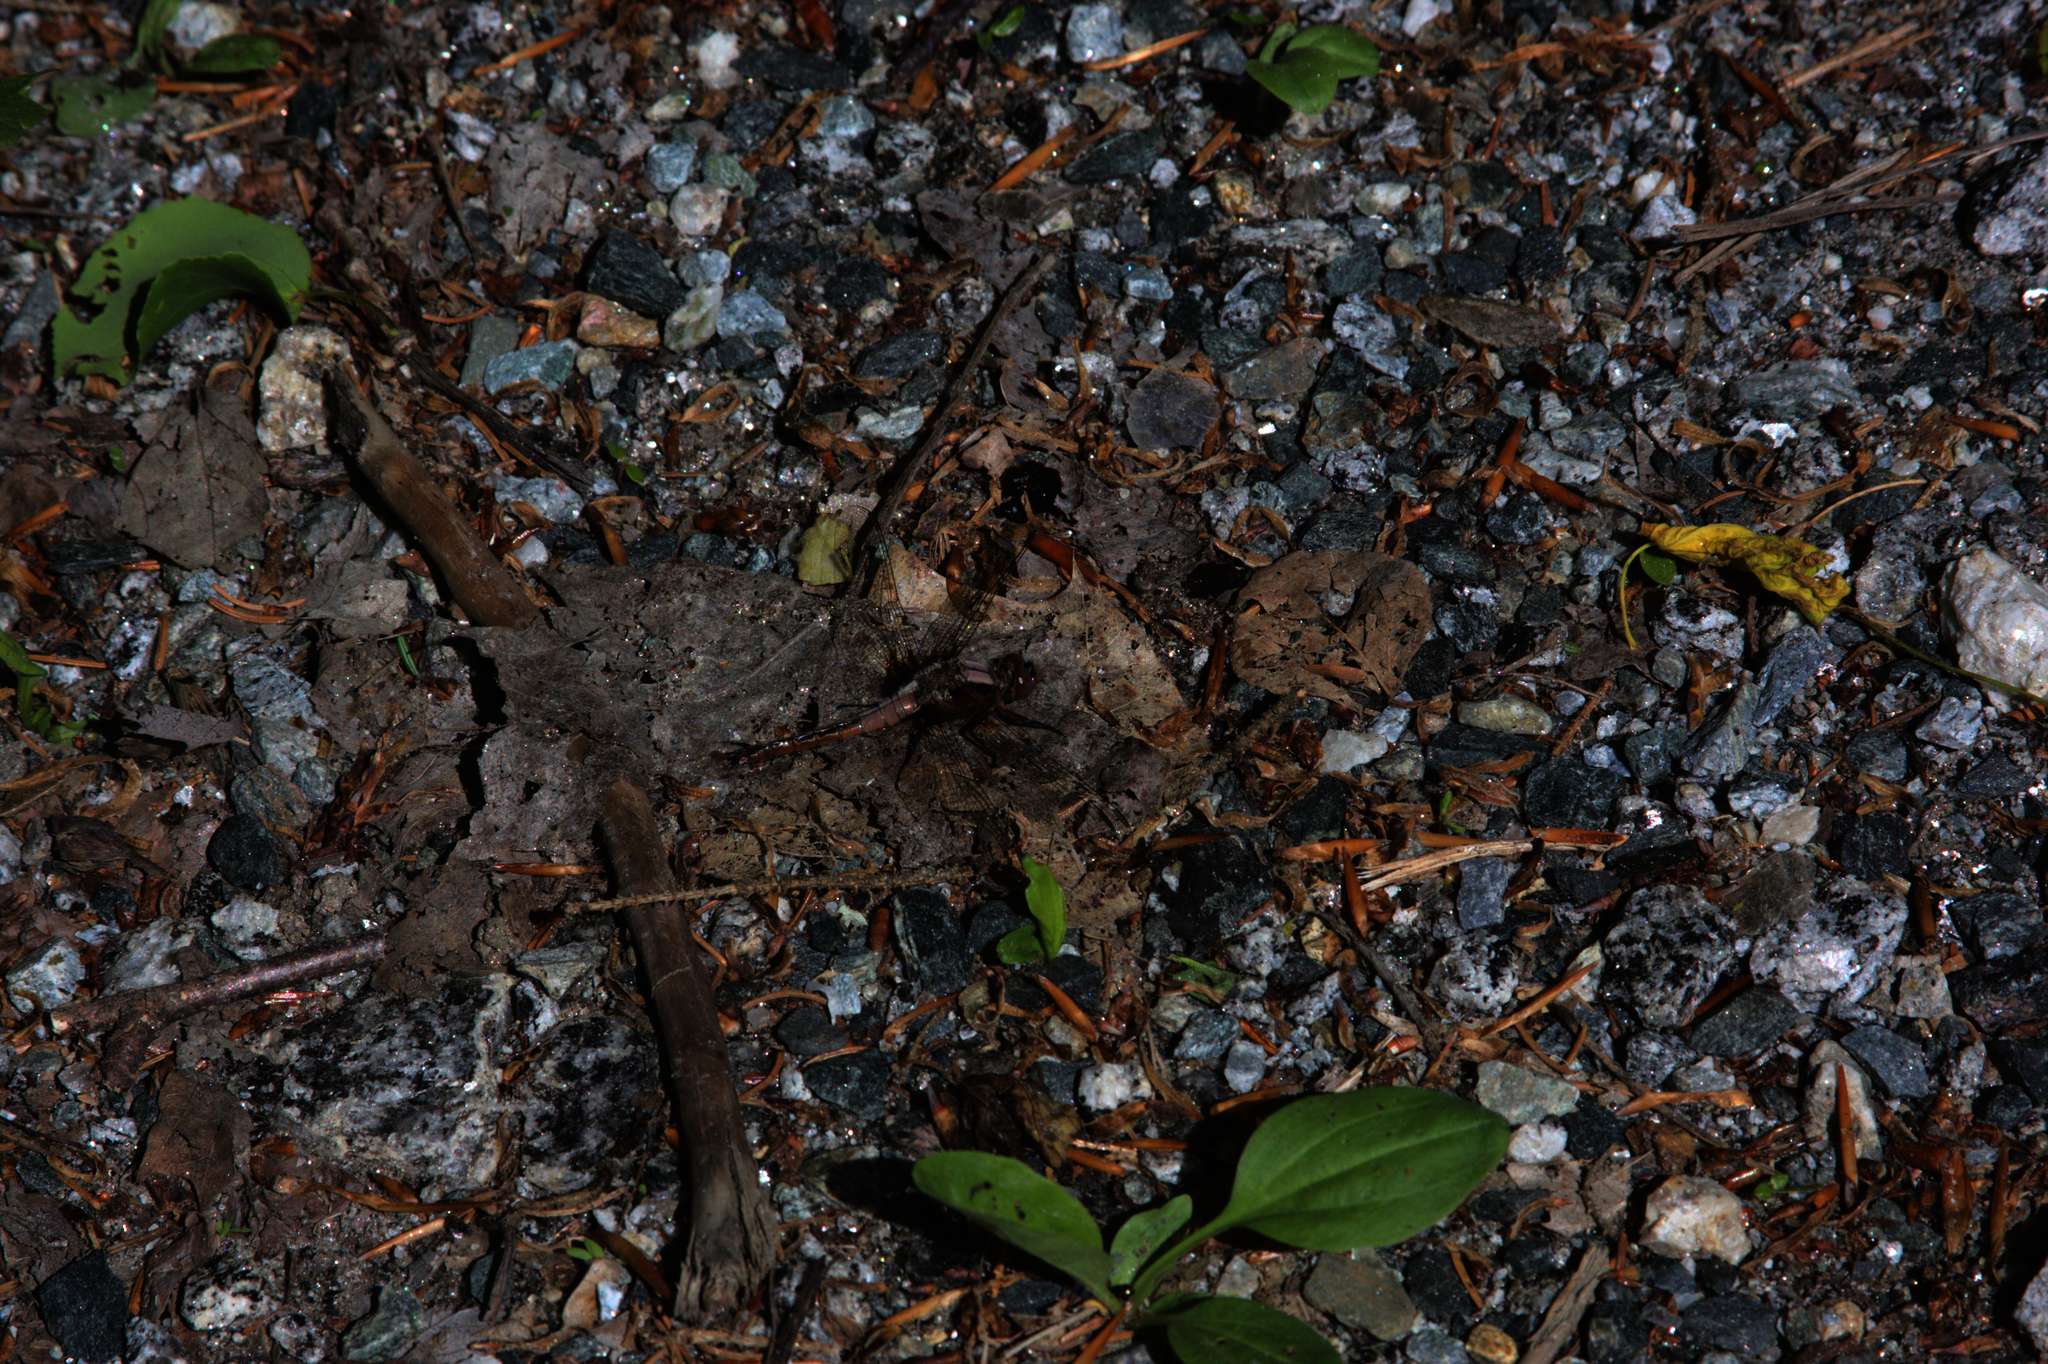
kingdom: Animalia
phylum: Arthropoda
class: Insecta
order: Odonata
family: Libellulidae
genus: Ladona
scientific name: Ladona julia
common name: Chalk-fronted corporal
